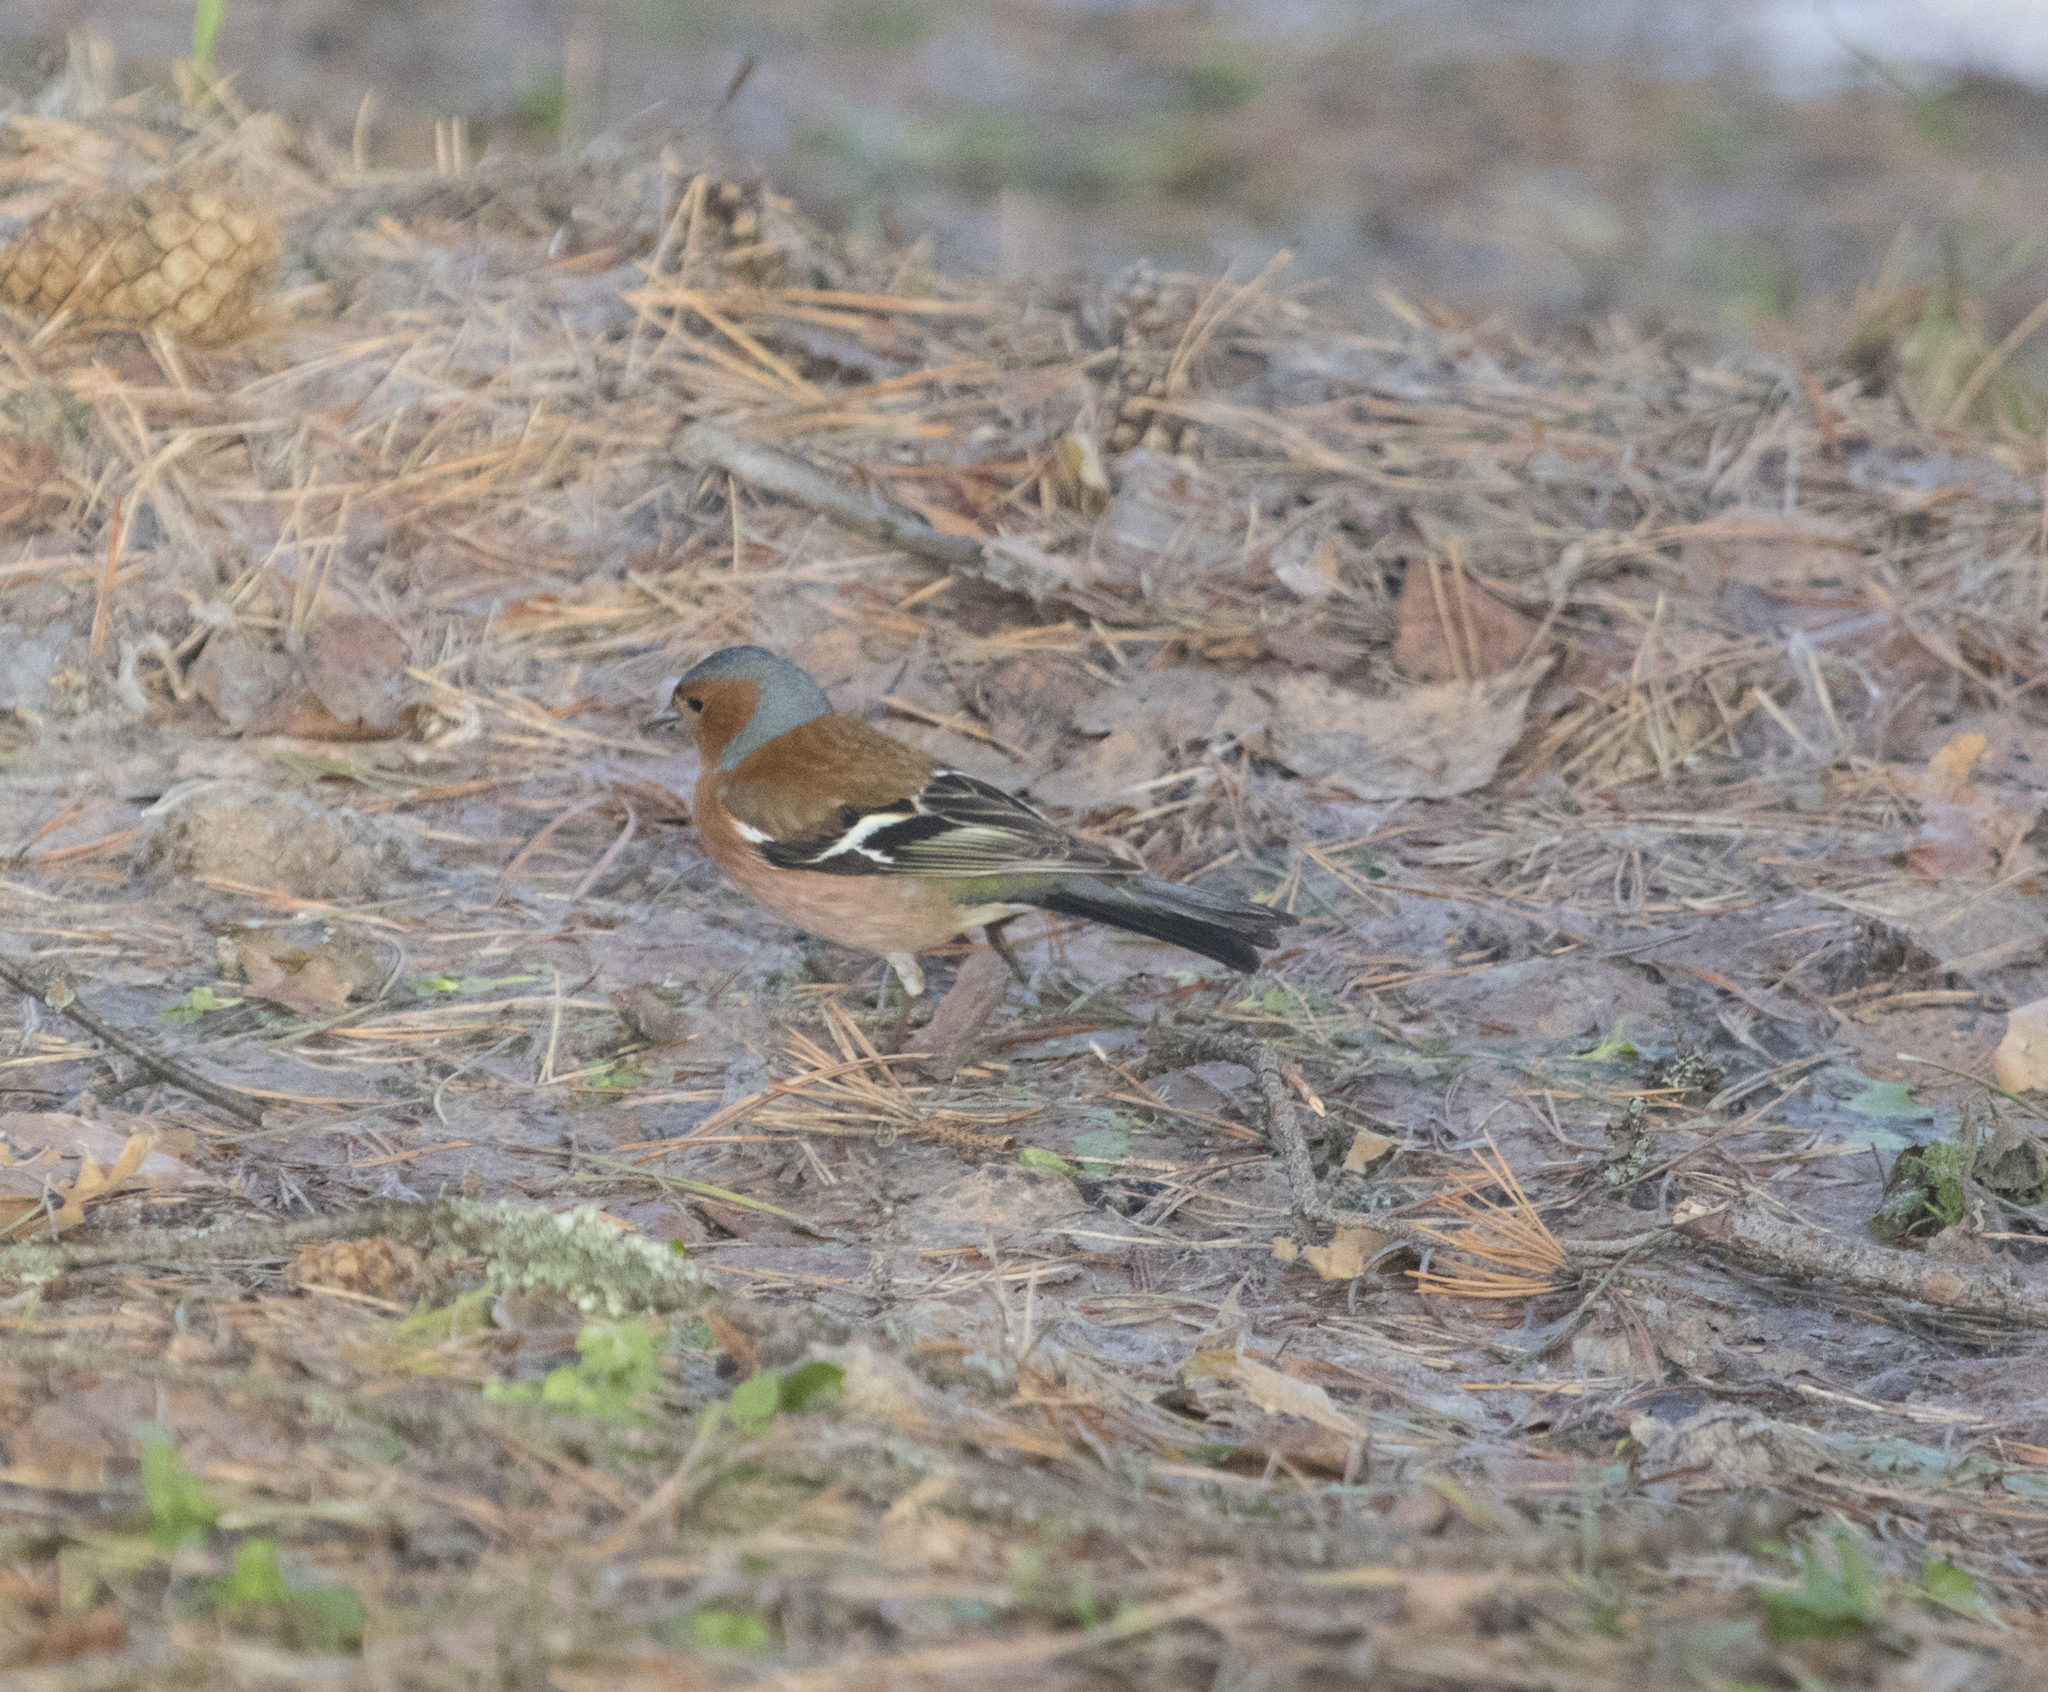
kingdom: Animalia
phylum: Chordata
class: Aves
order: Passeriformes
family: Fringillidae
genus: Fringilla
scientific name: Fringilla coelebs
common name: Common chaffinch
